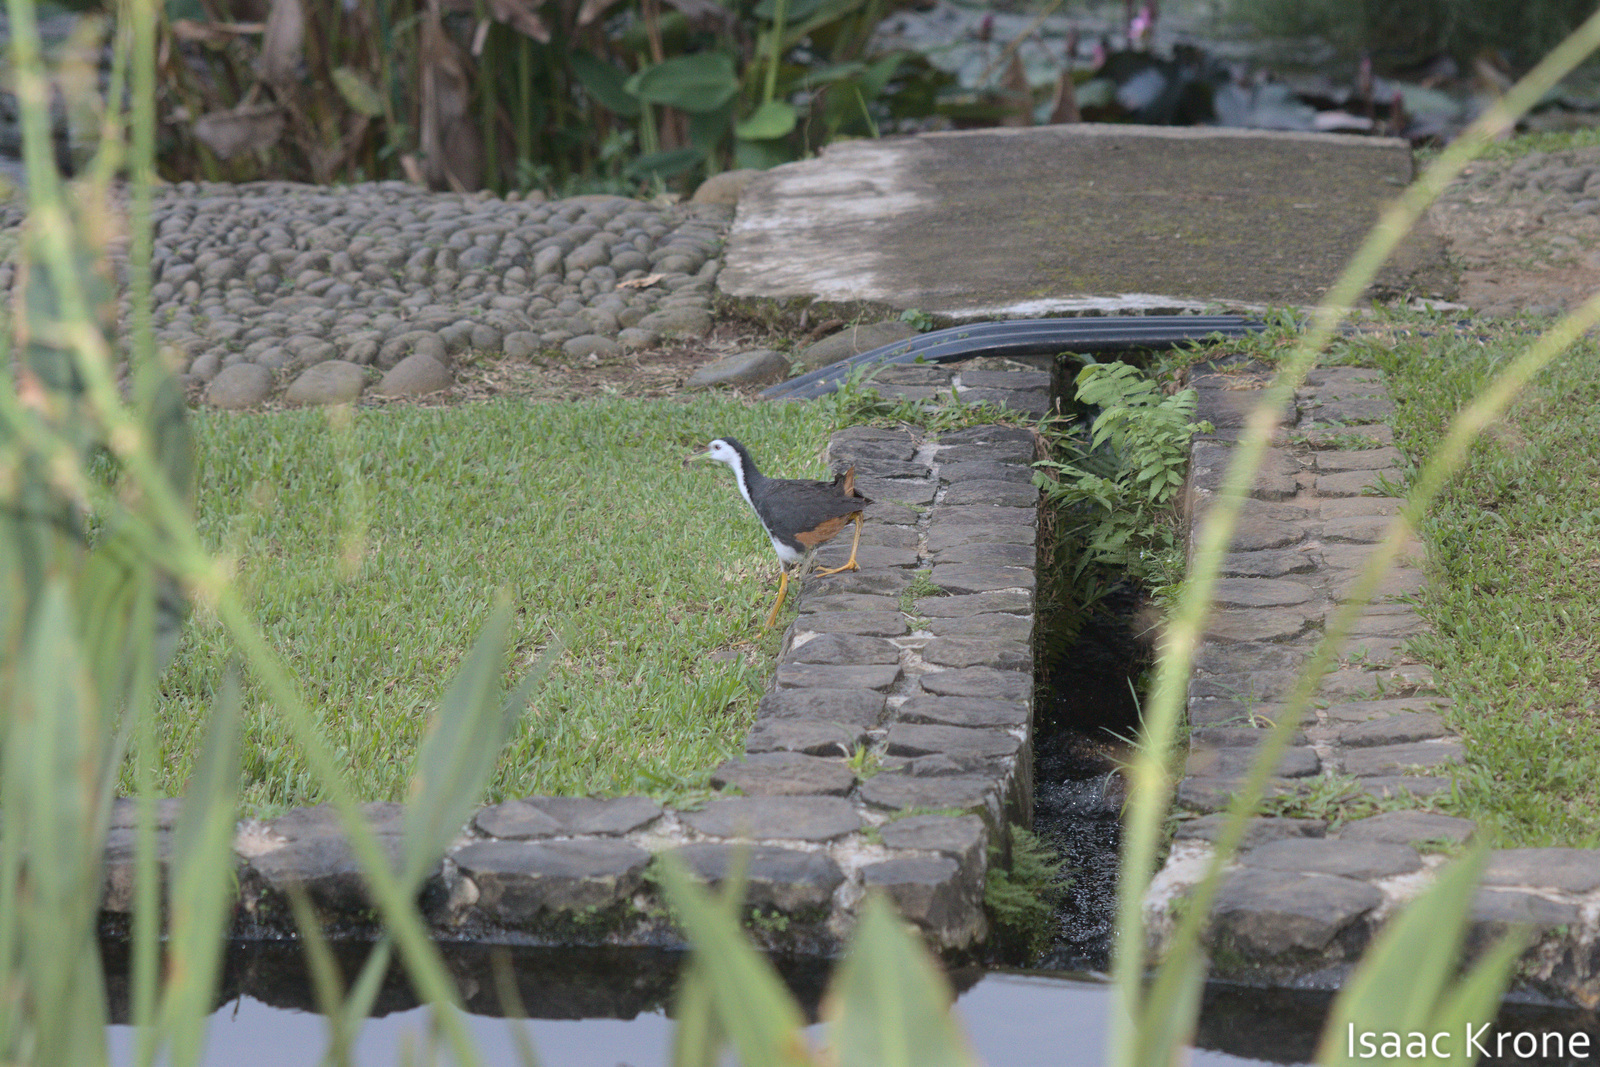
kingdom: Animalia
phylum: Chordata
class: Aves
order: Gruiformes
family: Rallidae
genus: Amaurornis
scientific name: Amaurornis phoenicurus
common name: White-breasted waterhen
